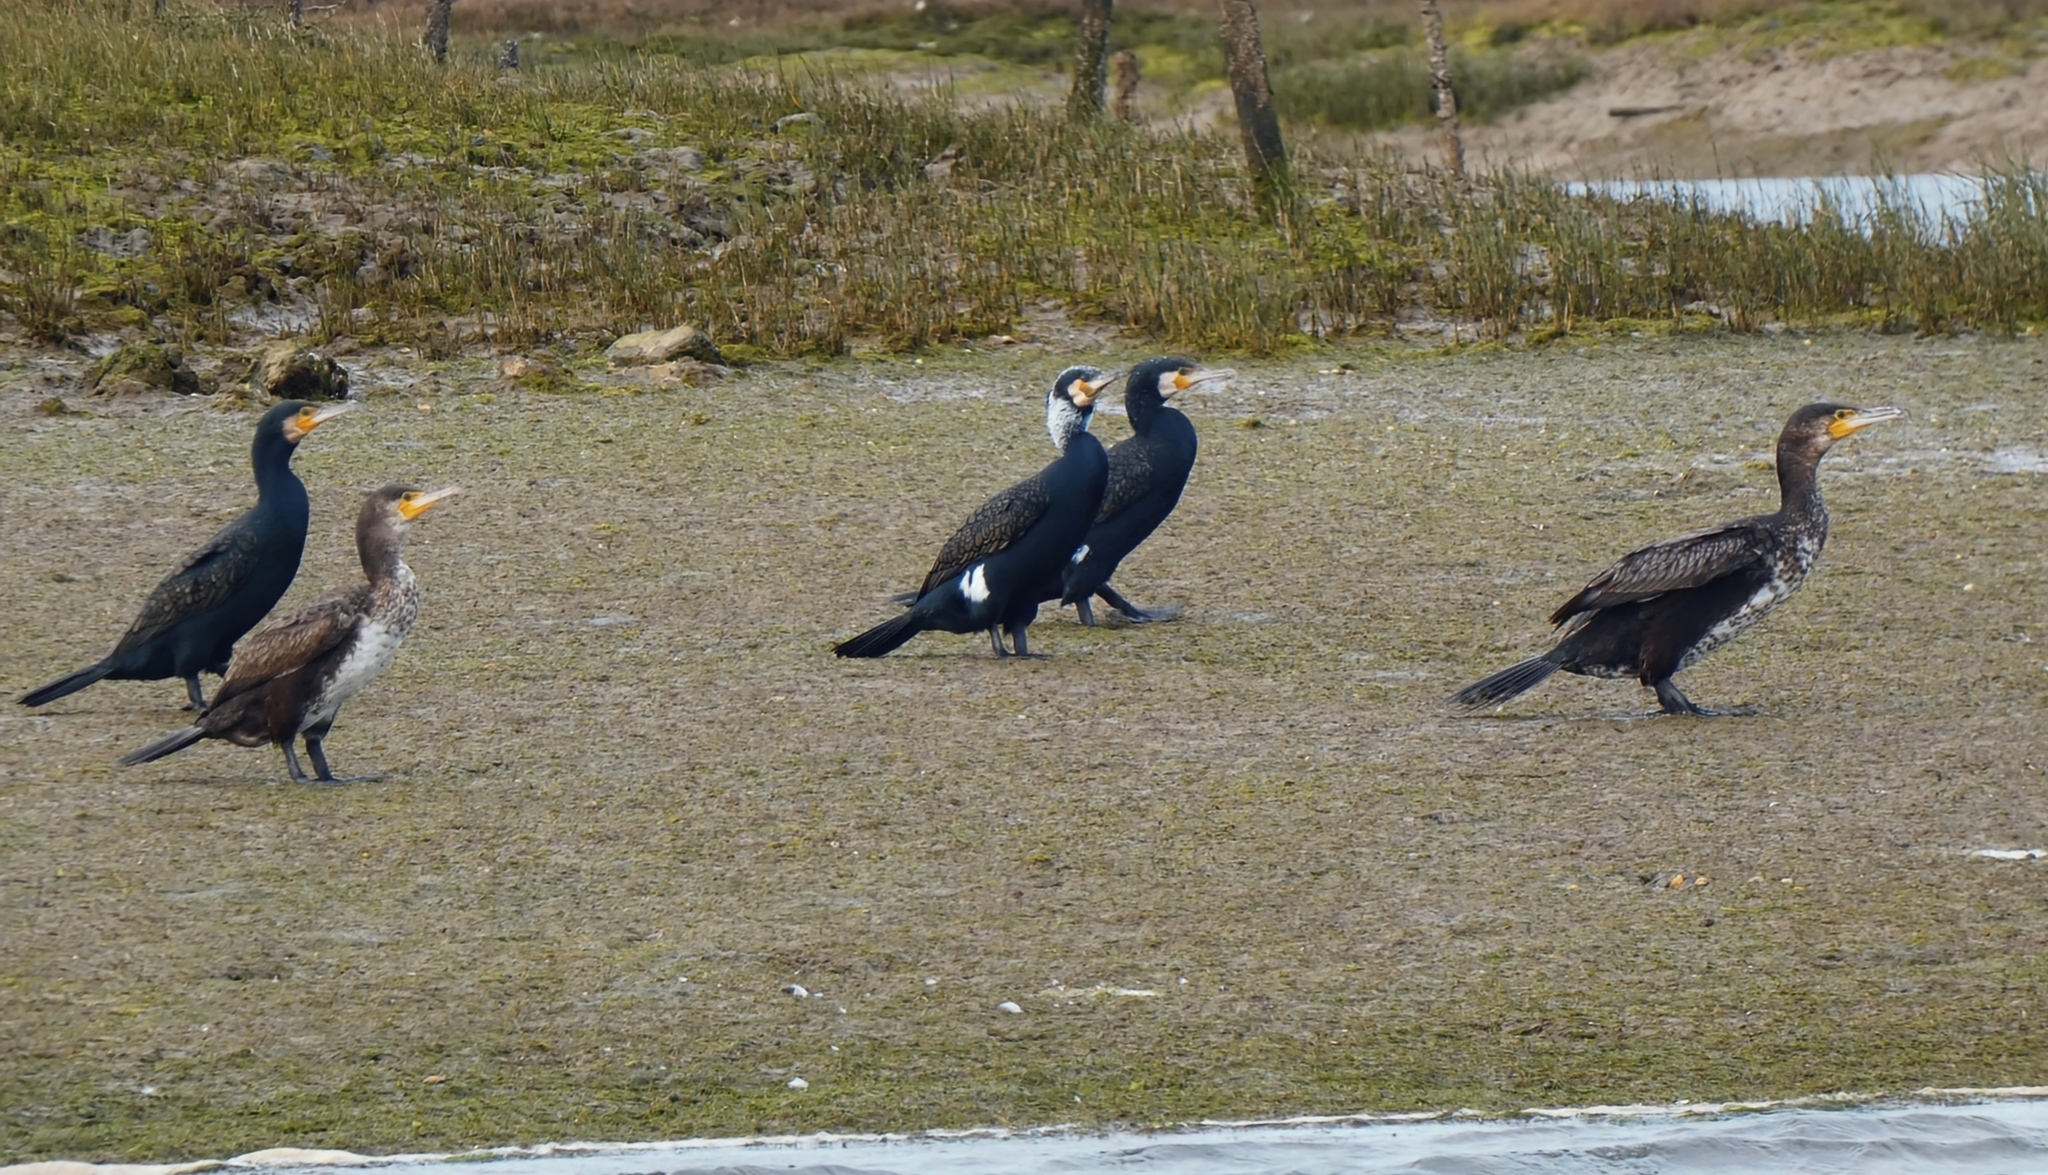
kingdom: Animalia
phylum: Chordata
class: Aves
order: Suliformes
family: Phalacrocoracidae
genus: Phalacrocorax
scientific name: Phalacrocorax carbo
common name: Great cormorant
